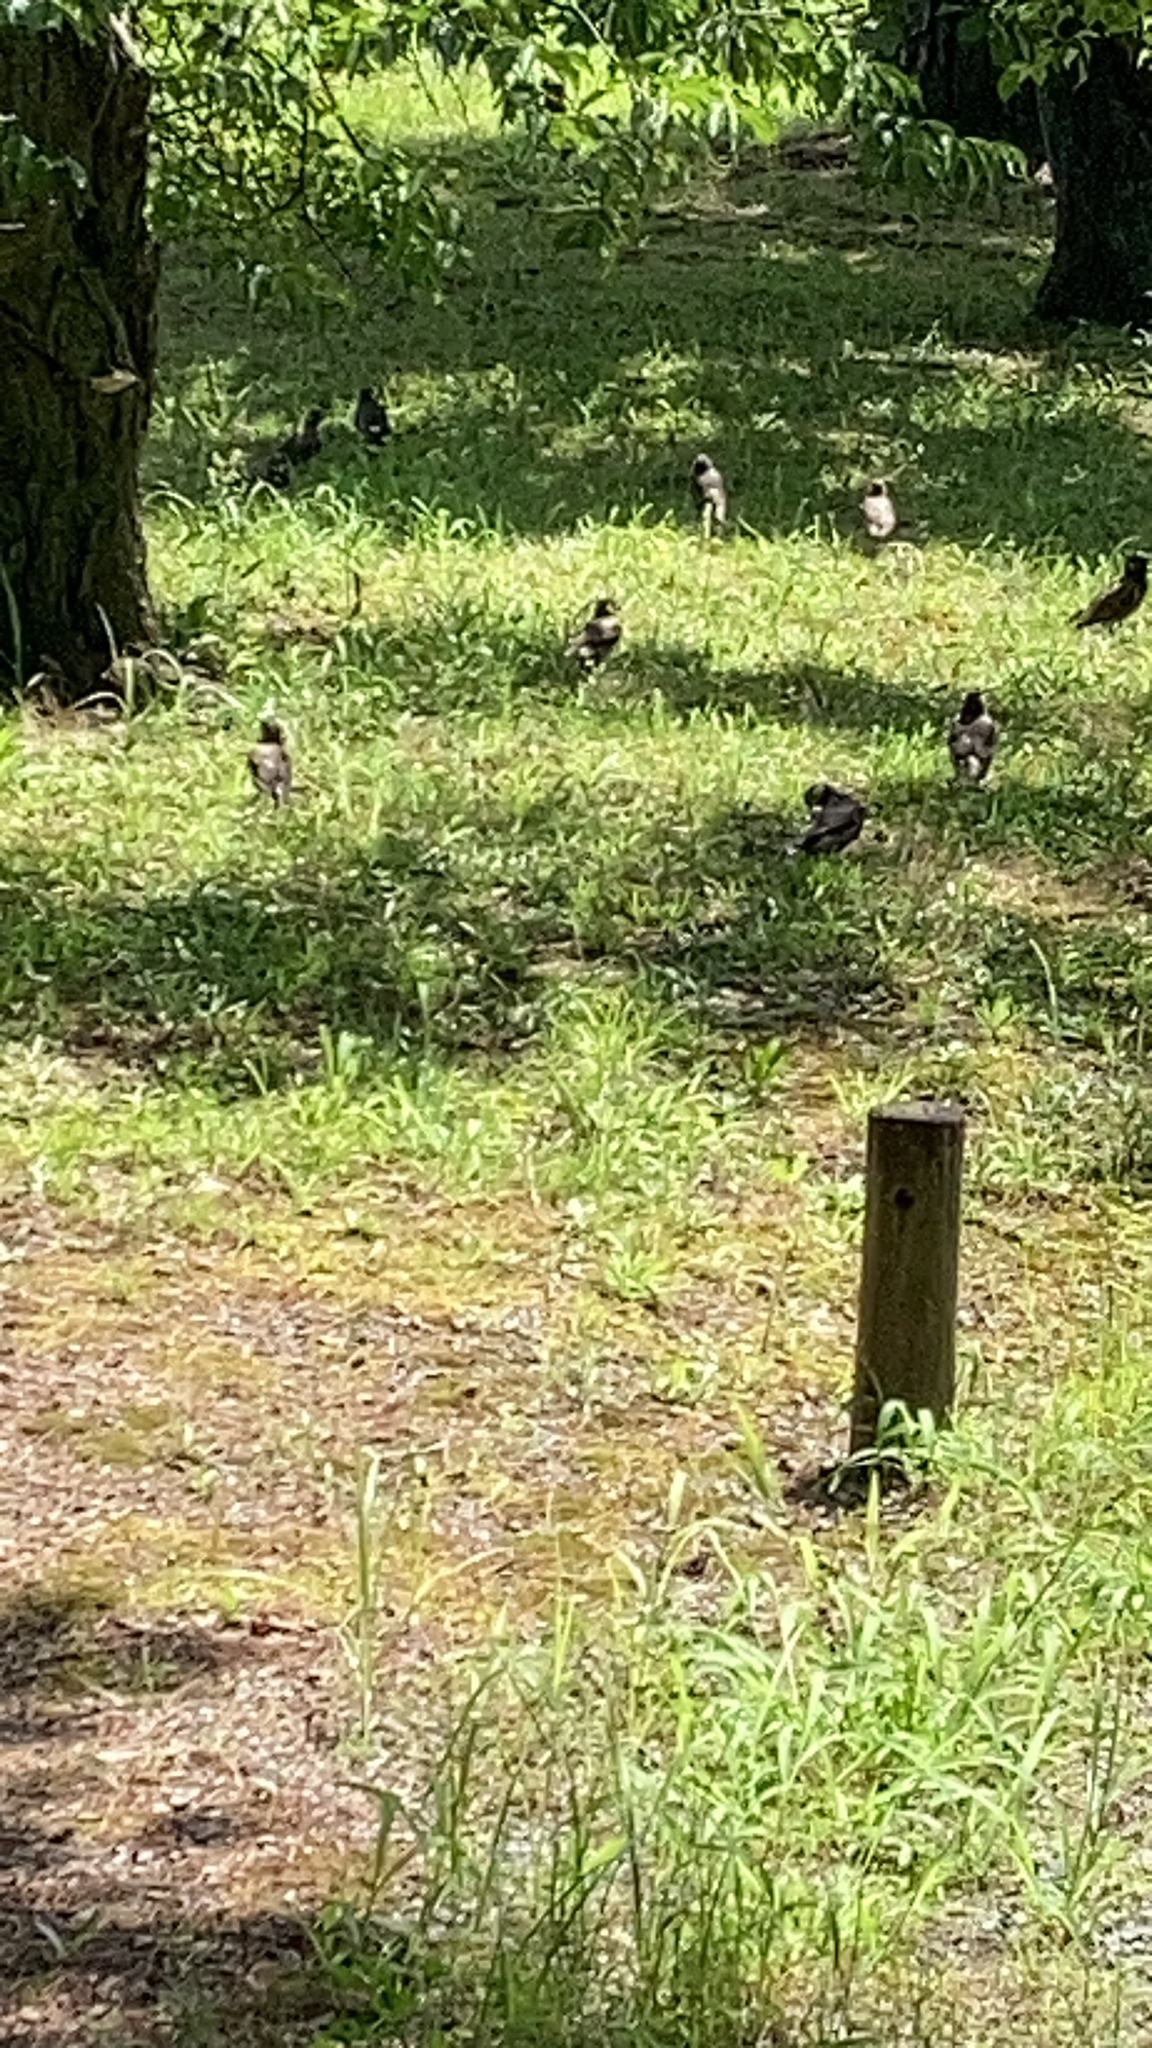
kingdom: Animalia
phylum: Chordata
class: Aves
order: Passeriformes
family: Sturnidae
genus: Spodiopsar
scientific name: Spodiopsar cineraceus
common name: White-cheeked starling
